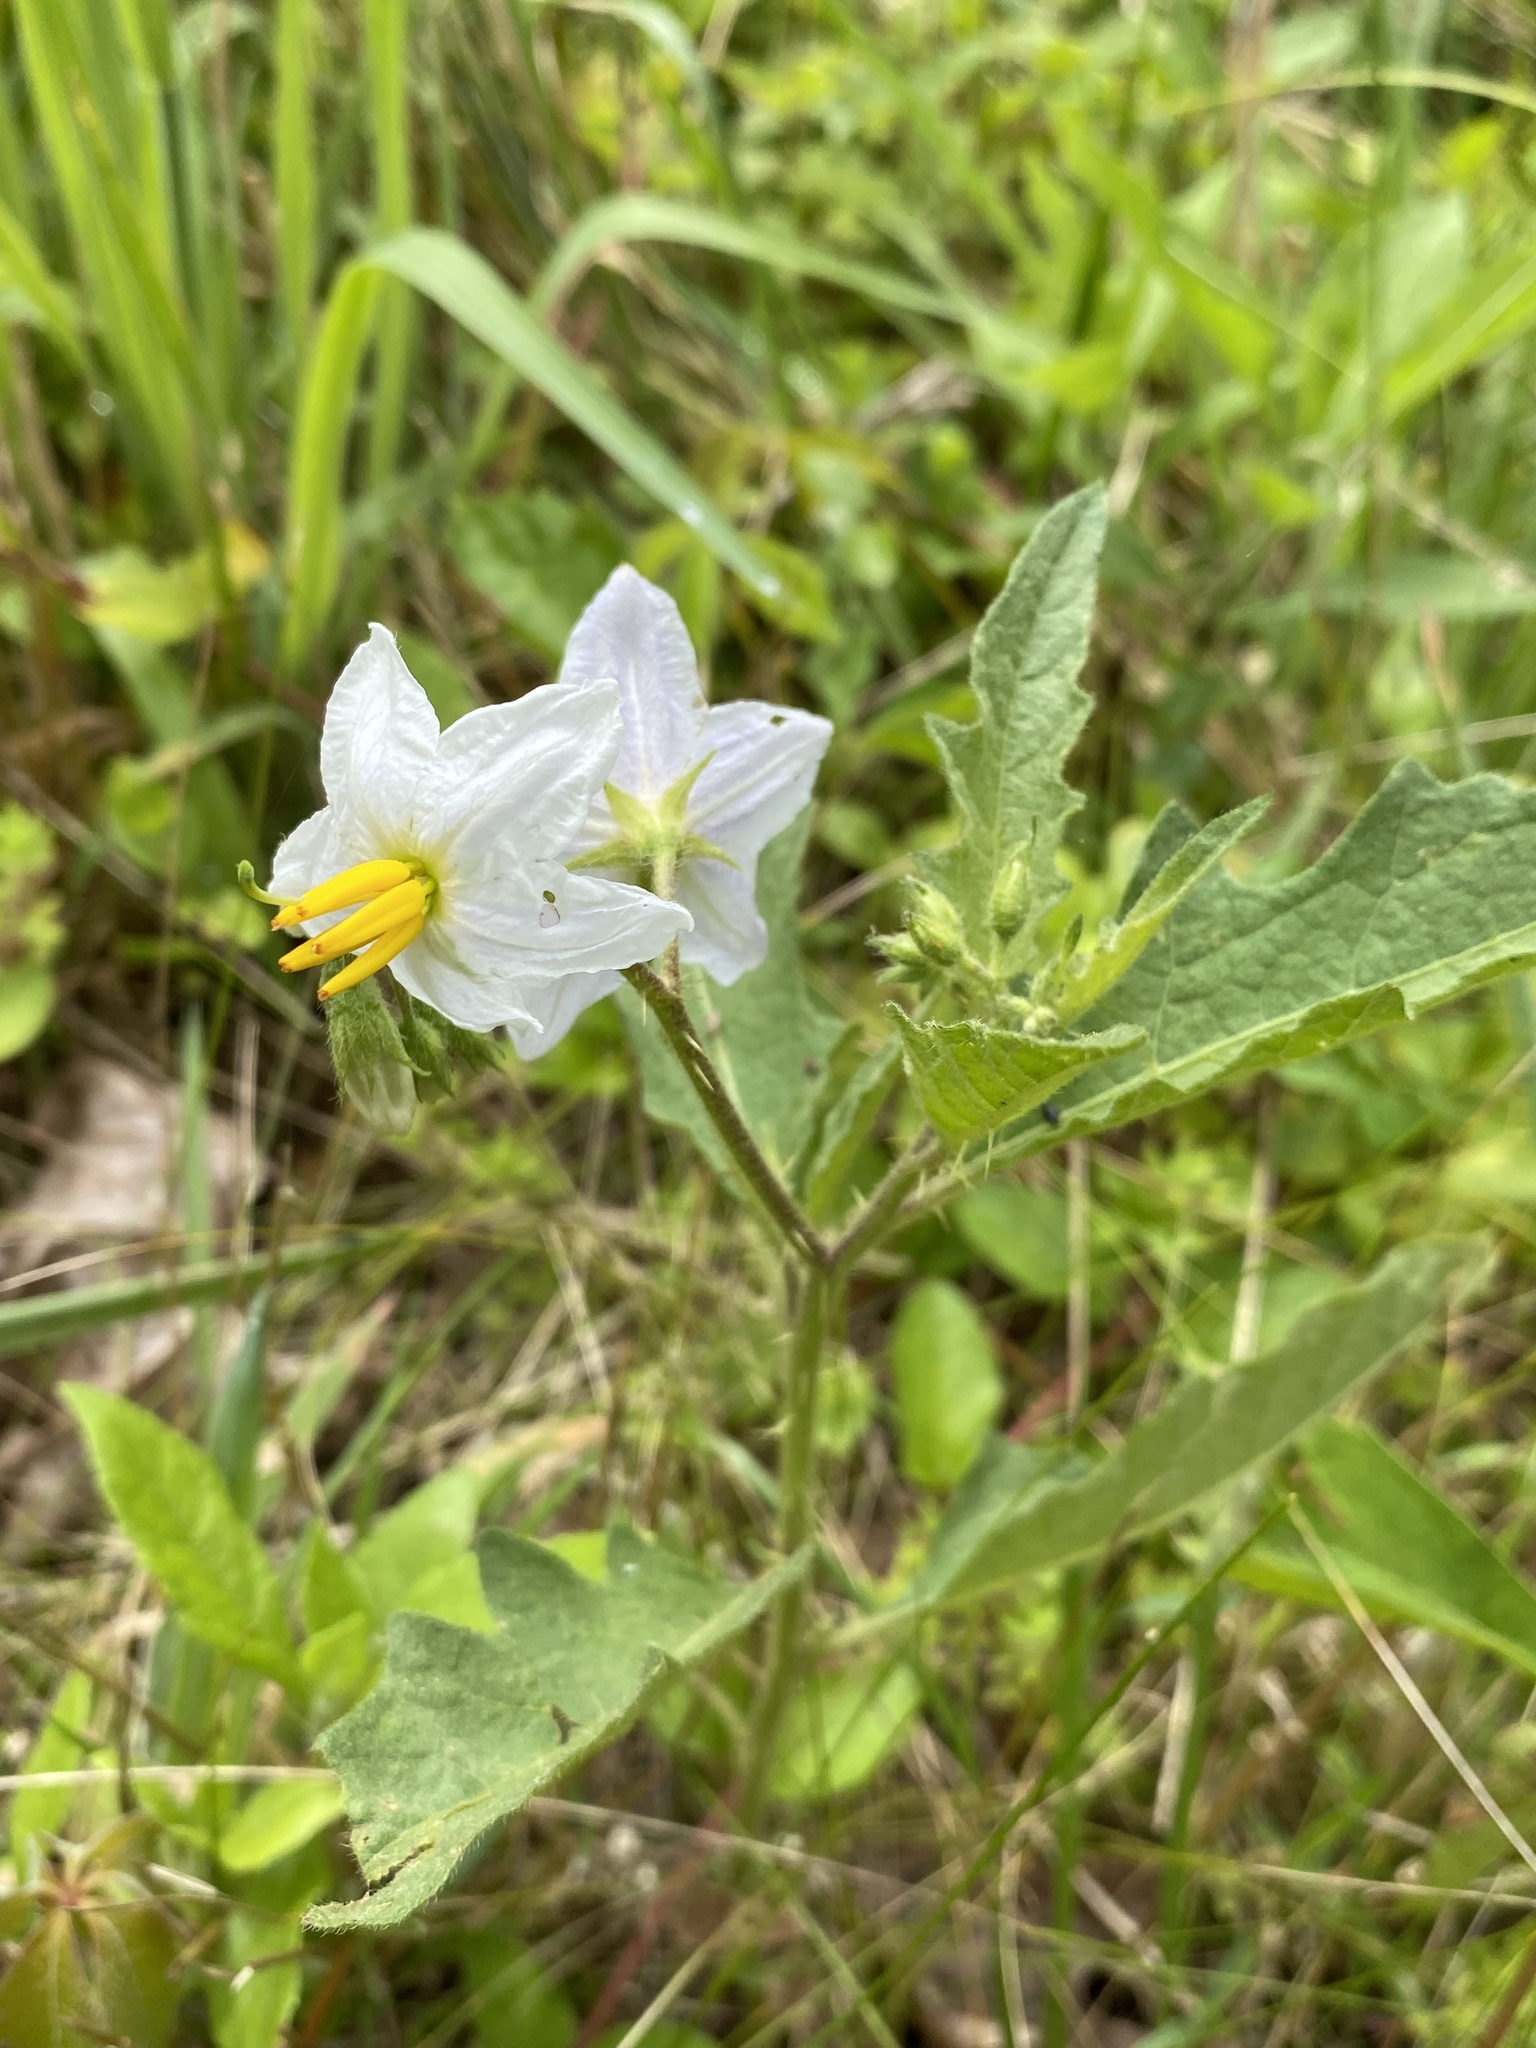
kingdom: Plantae
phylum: Tracheophyta
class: Magnoliopsida
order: Solanales
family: Solanaceae
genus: Solanum
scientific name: Solanum carolinense
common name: Horse-nettle
